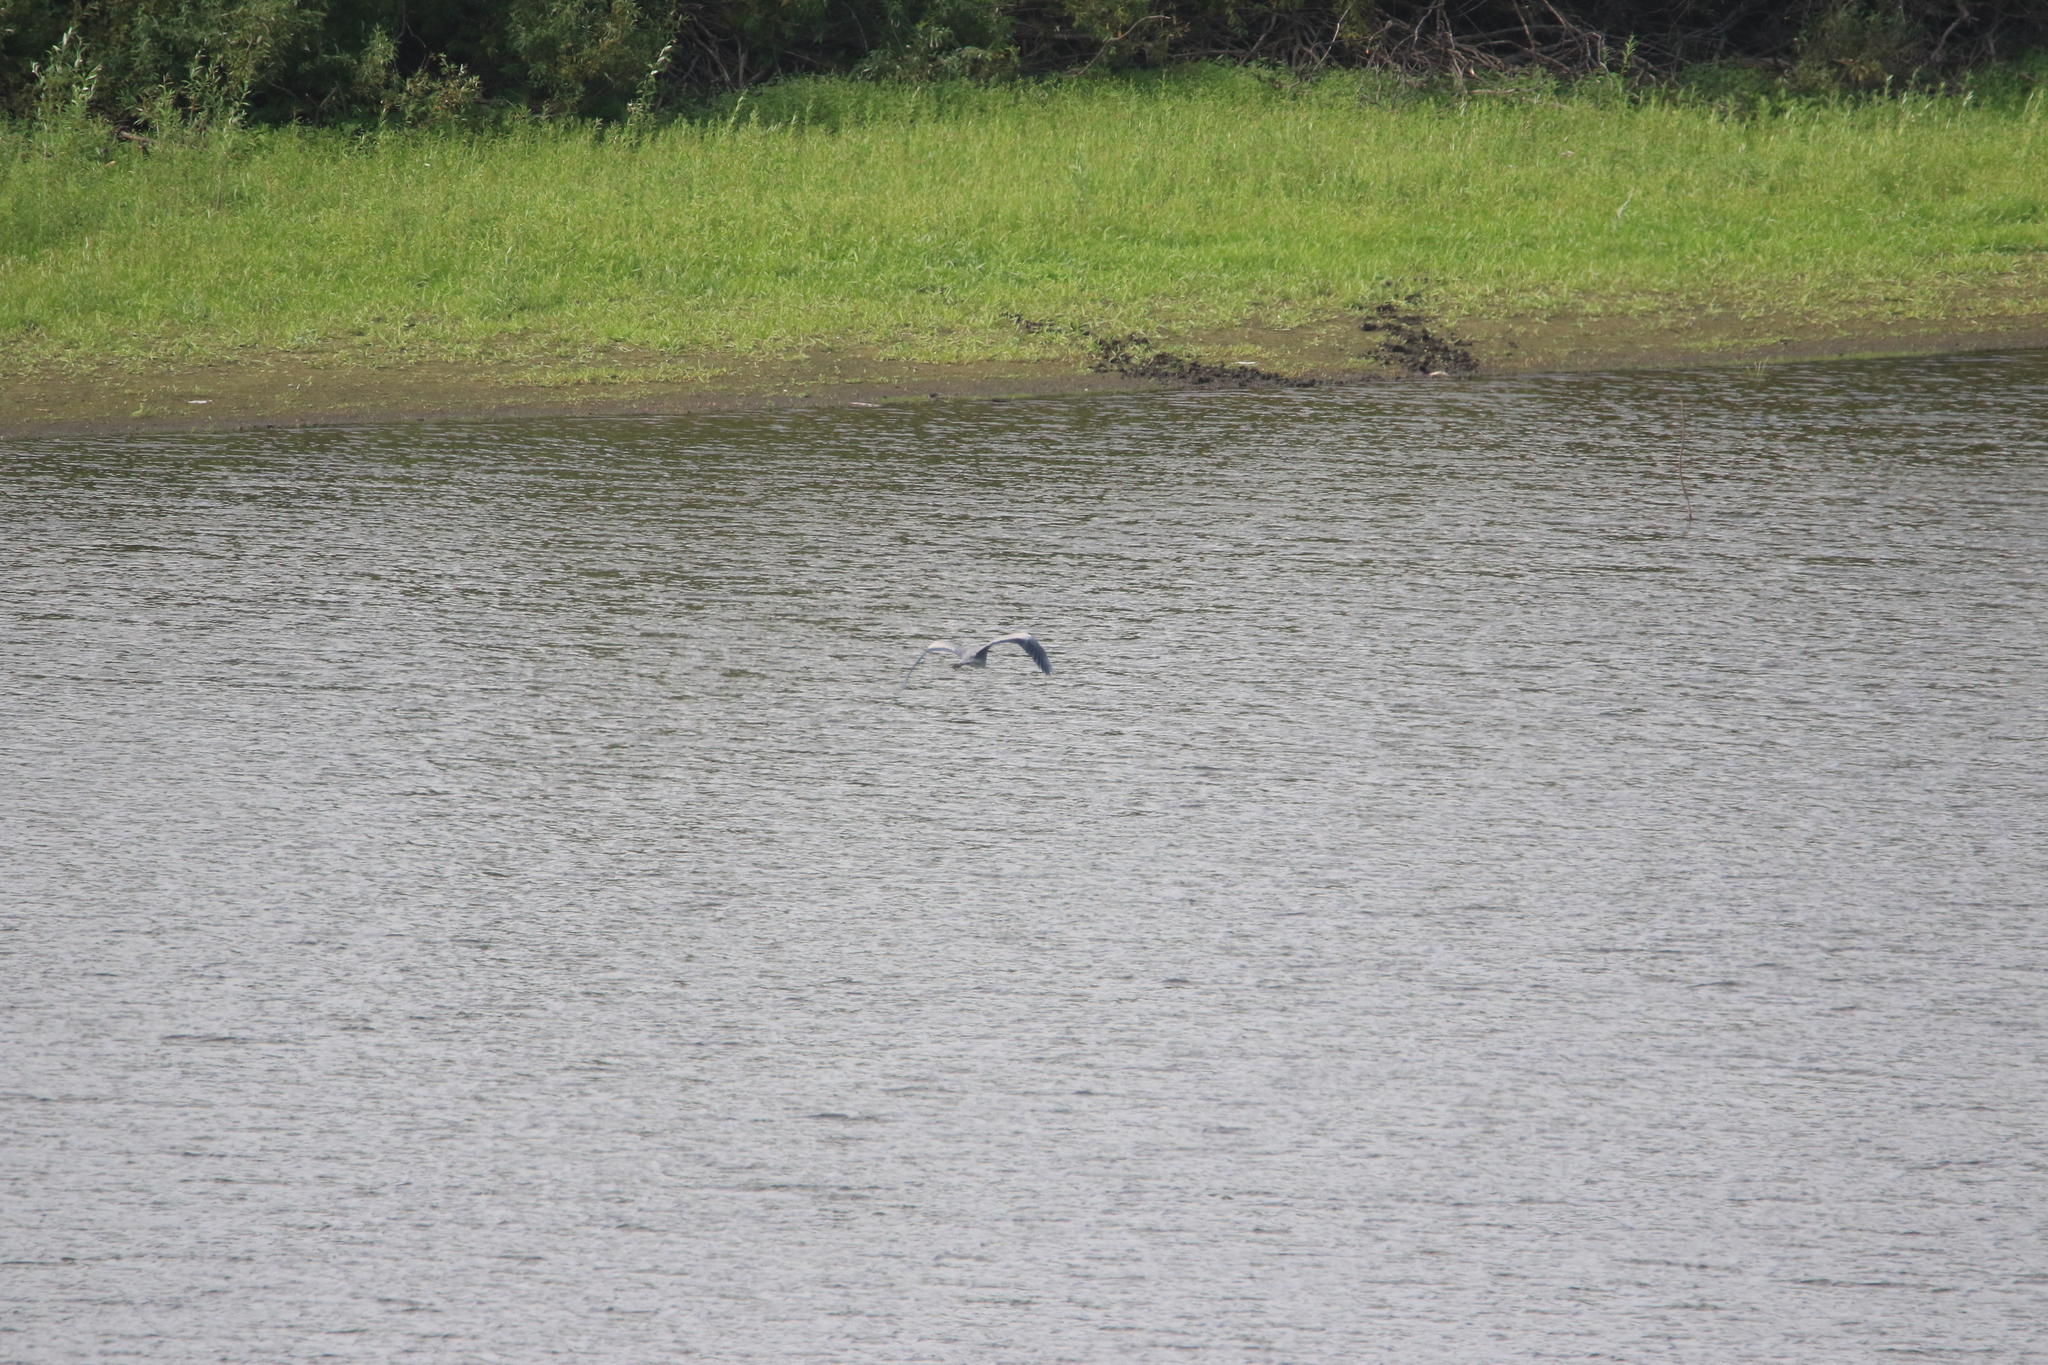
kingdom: Animalia
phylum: Chordata
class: Aves
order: Pelecaniformes
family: Ardeidae
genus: Ardea
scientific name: Ardea cinerea
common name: Grey heron
